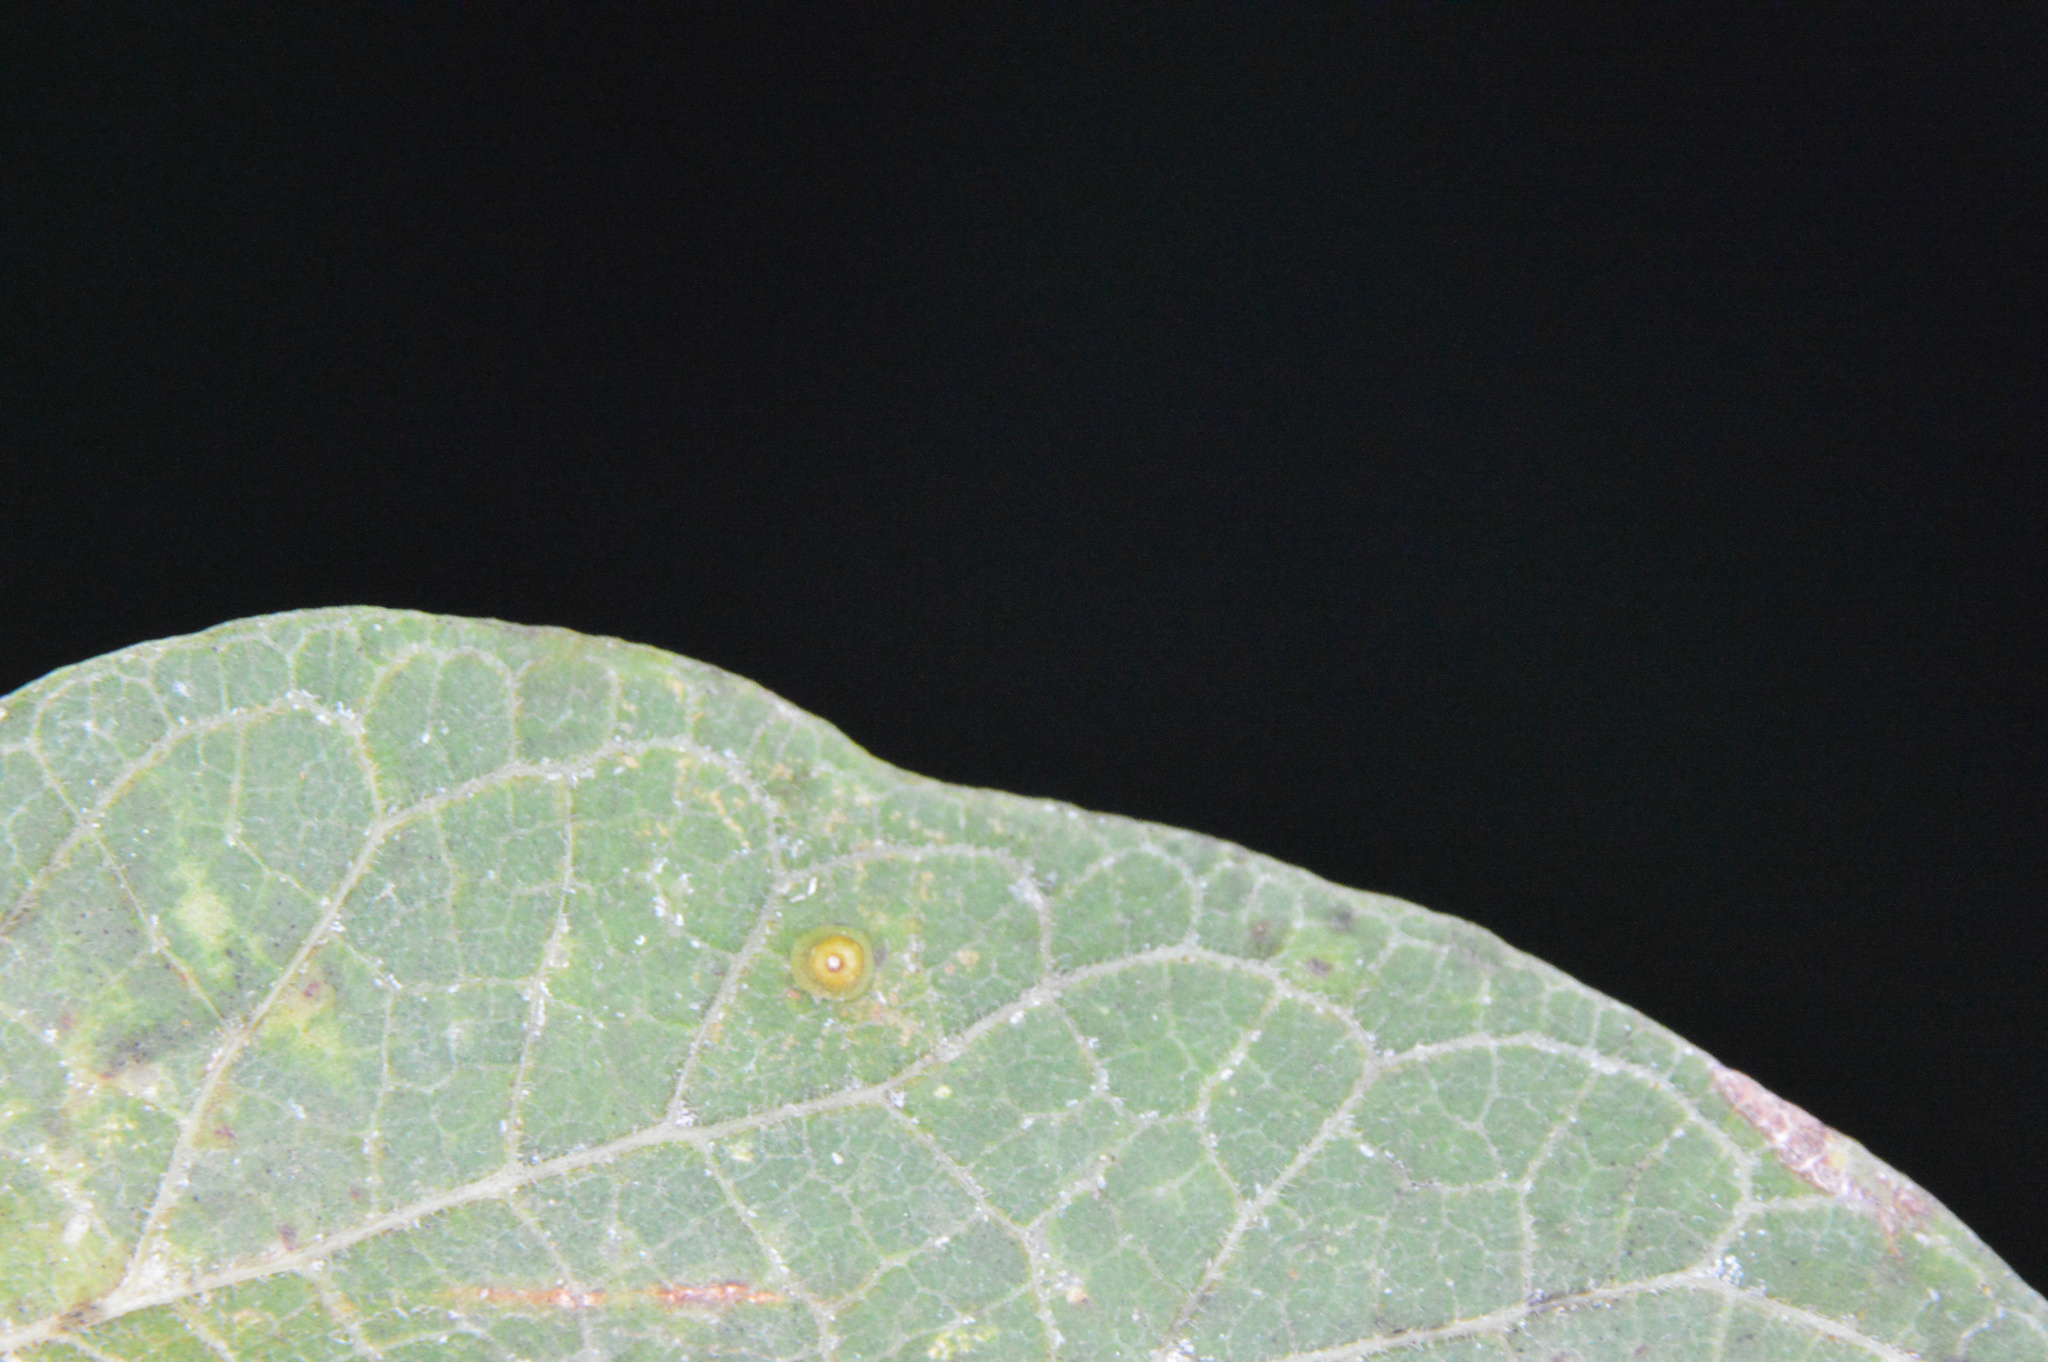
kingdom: Animalia
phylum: Arthropoda
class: Insecta
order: Diptera
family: Cecidomyiidae
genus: Celticecis
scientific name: Celticecis aciculata
